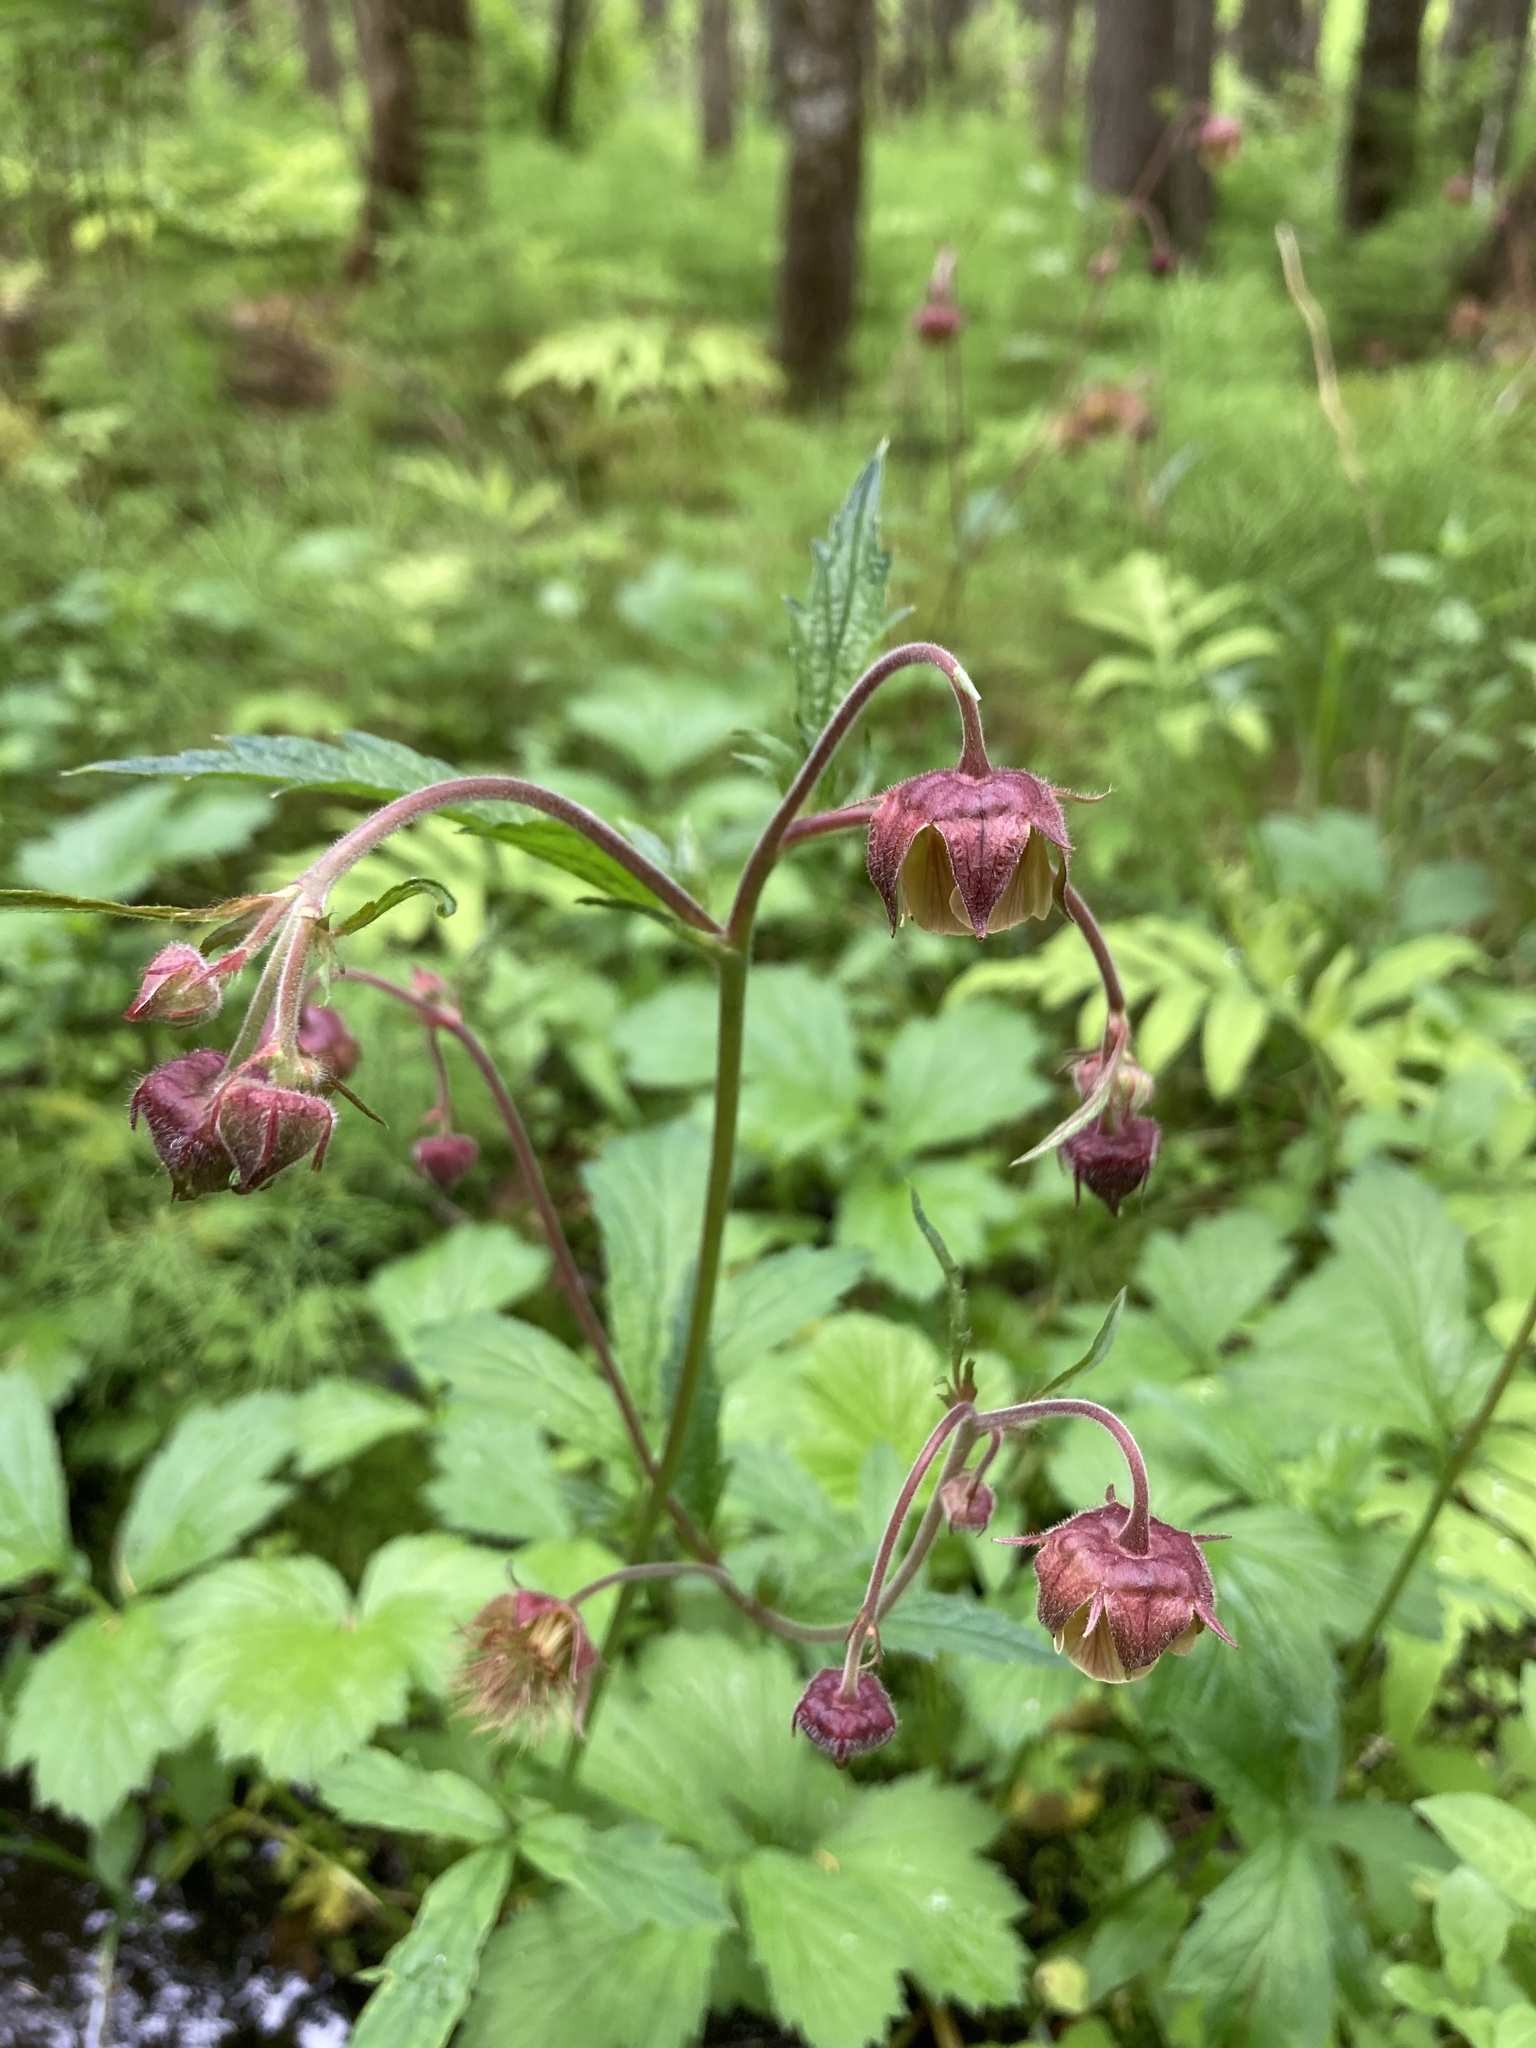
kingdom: Plantae
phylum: Tracheophyta
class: Magnoliopsida
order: Rosales
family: Rosaceae
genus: Geum
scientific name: Geum rivale
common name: Water avens
